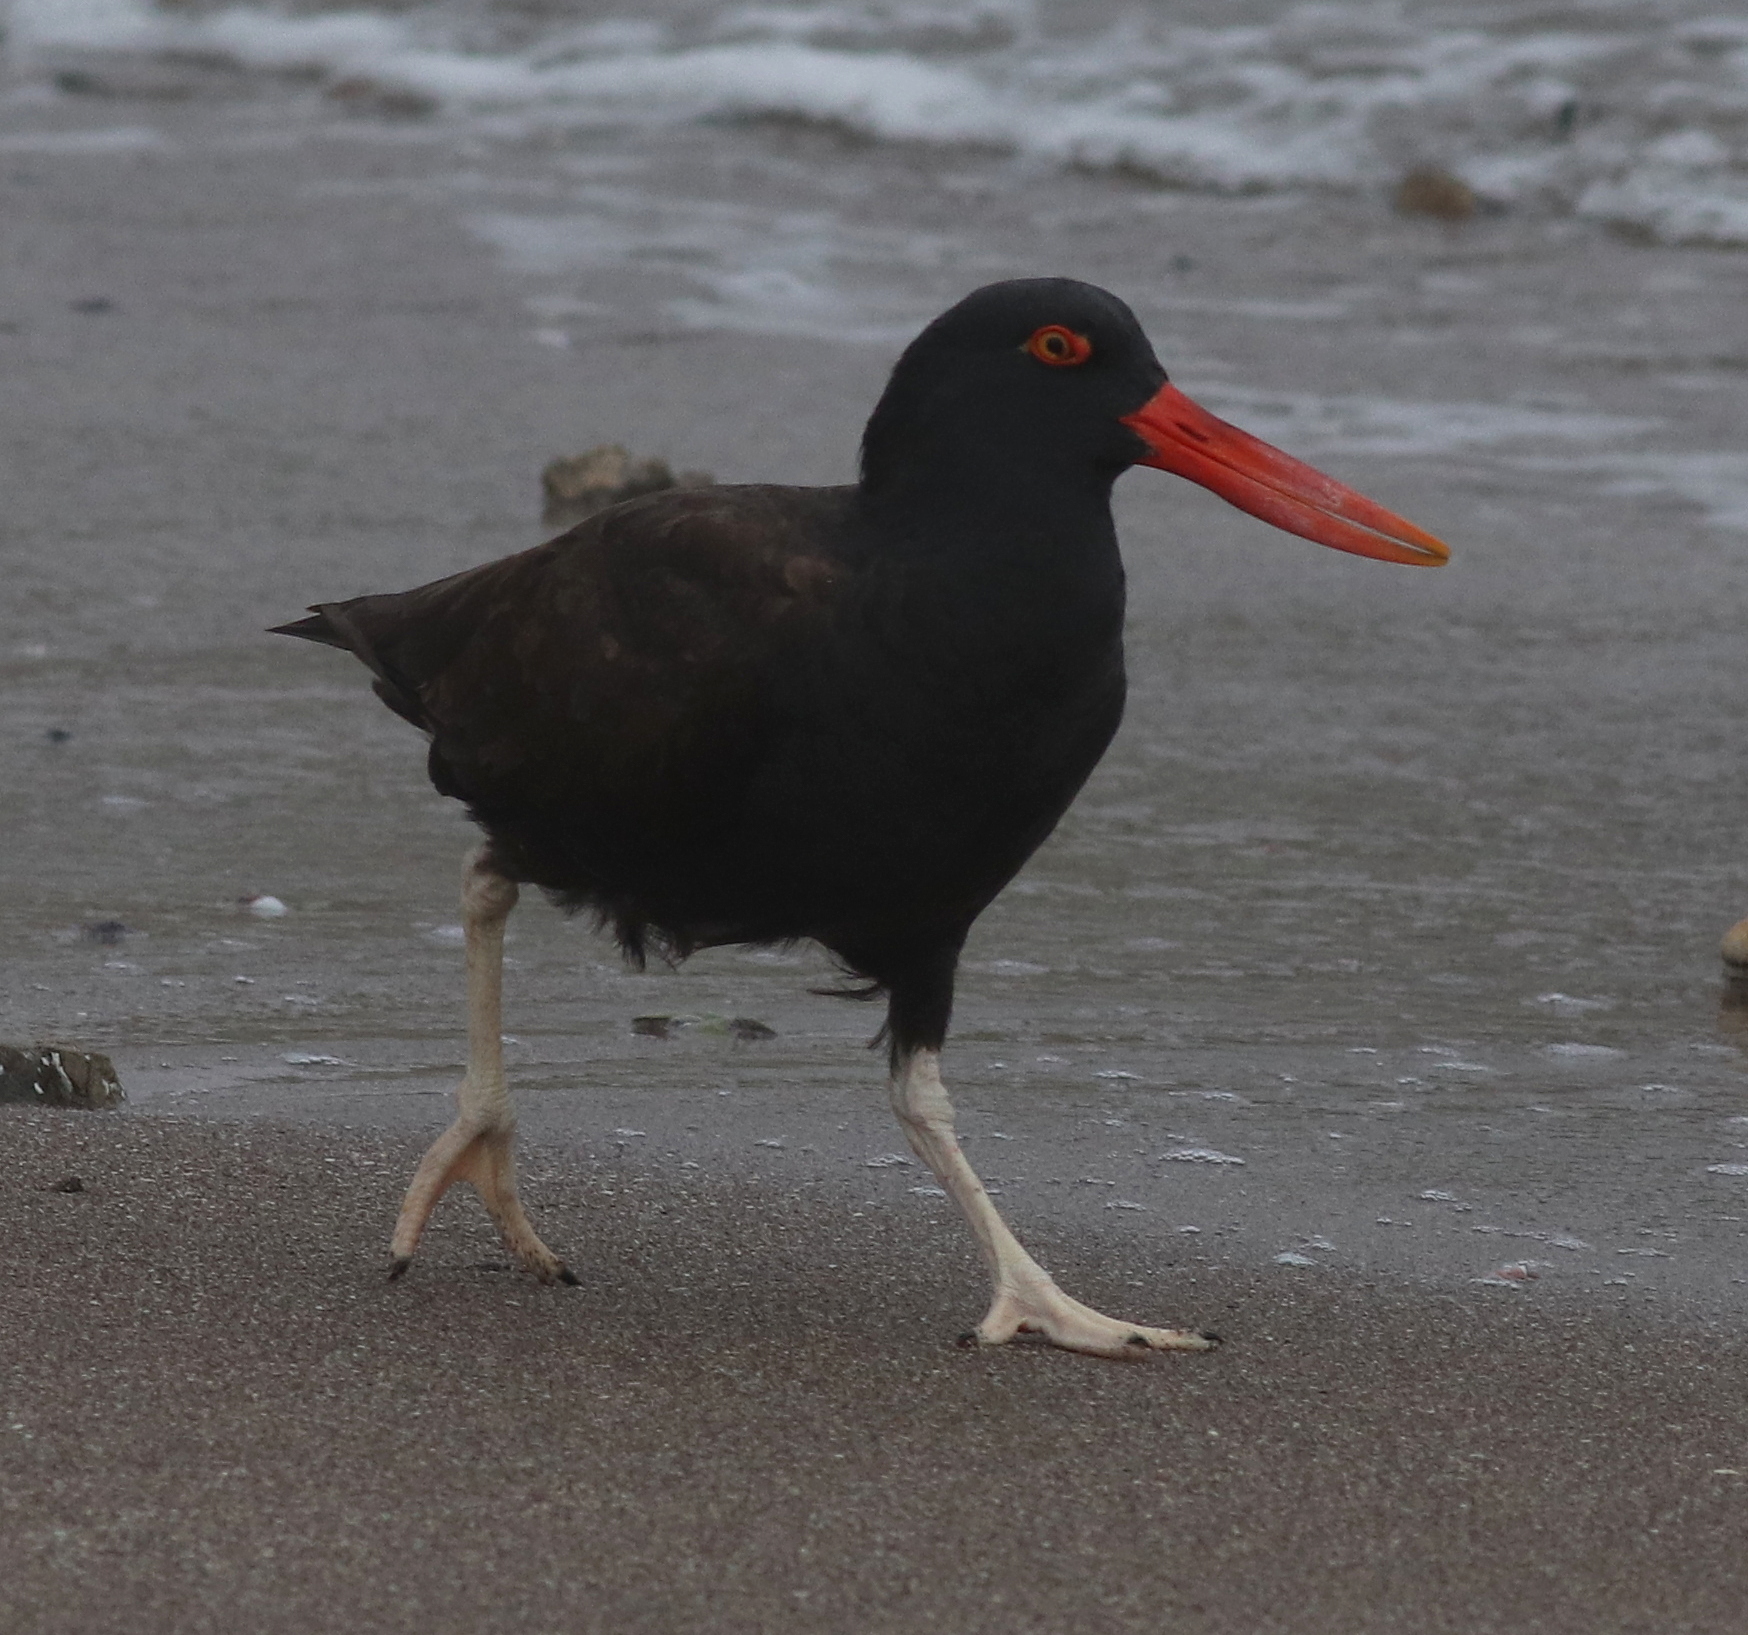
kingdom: Animalia
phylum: Chordata
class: Aves
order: Charadriiformes
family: Haematopodidae
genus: Haematopus
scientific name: Haematopus ater
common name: Blackish oystercatcher
